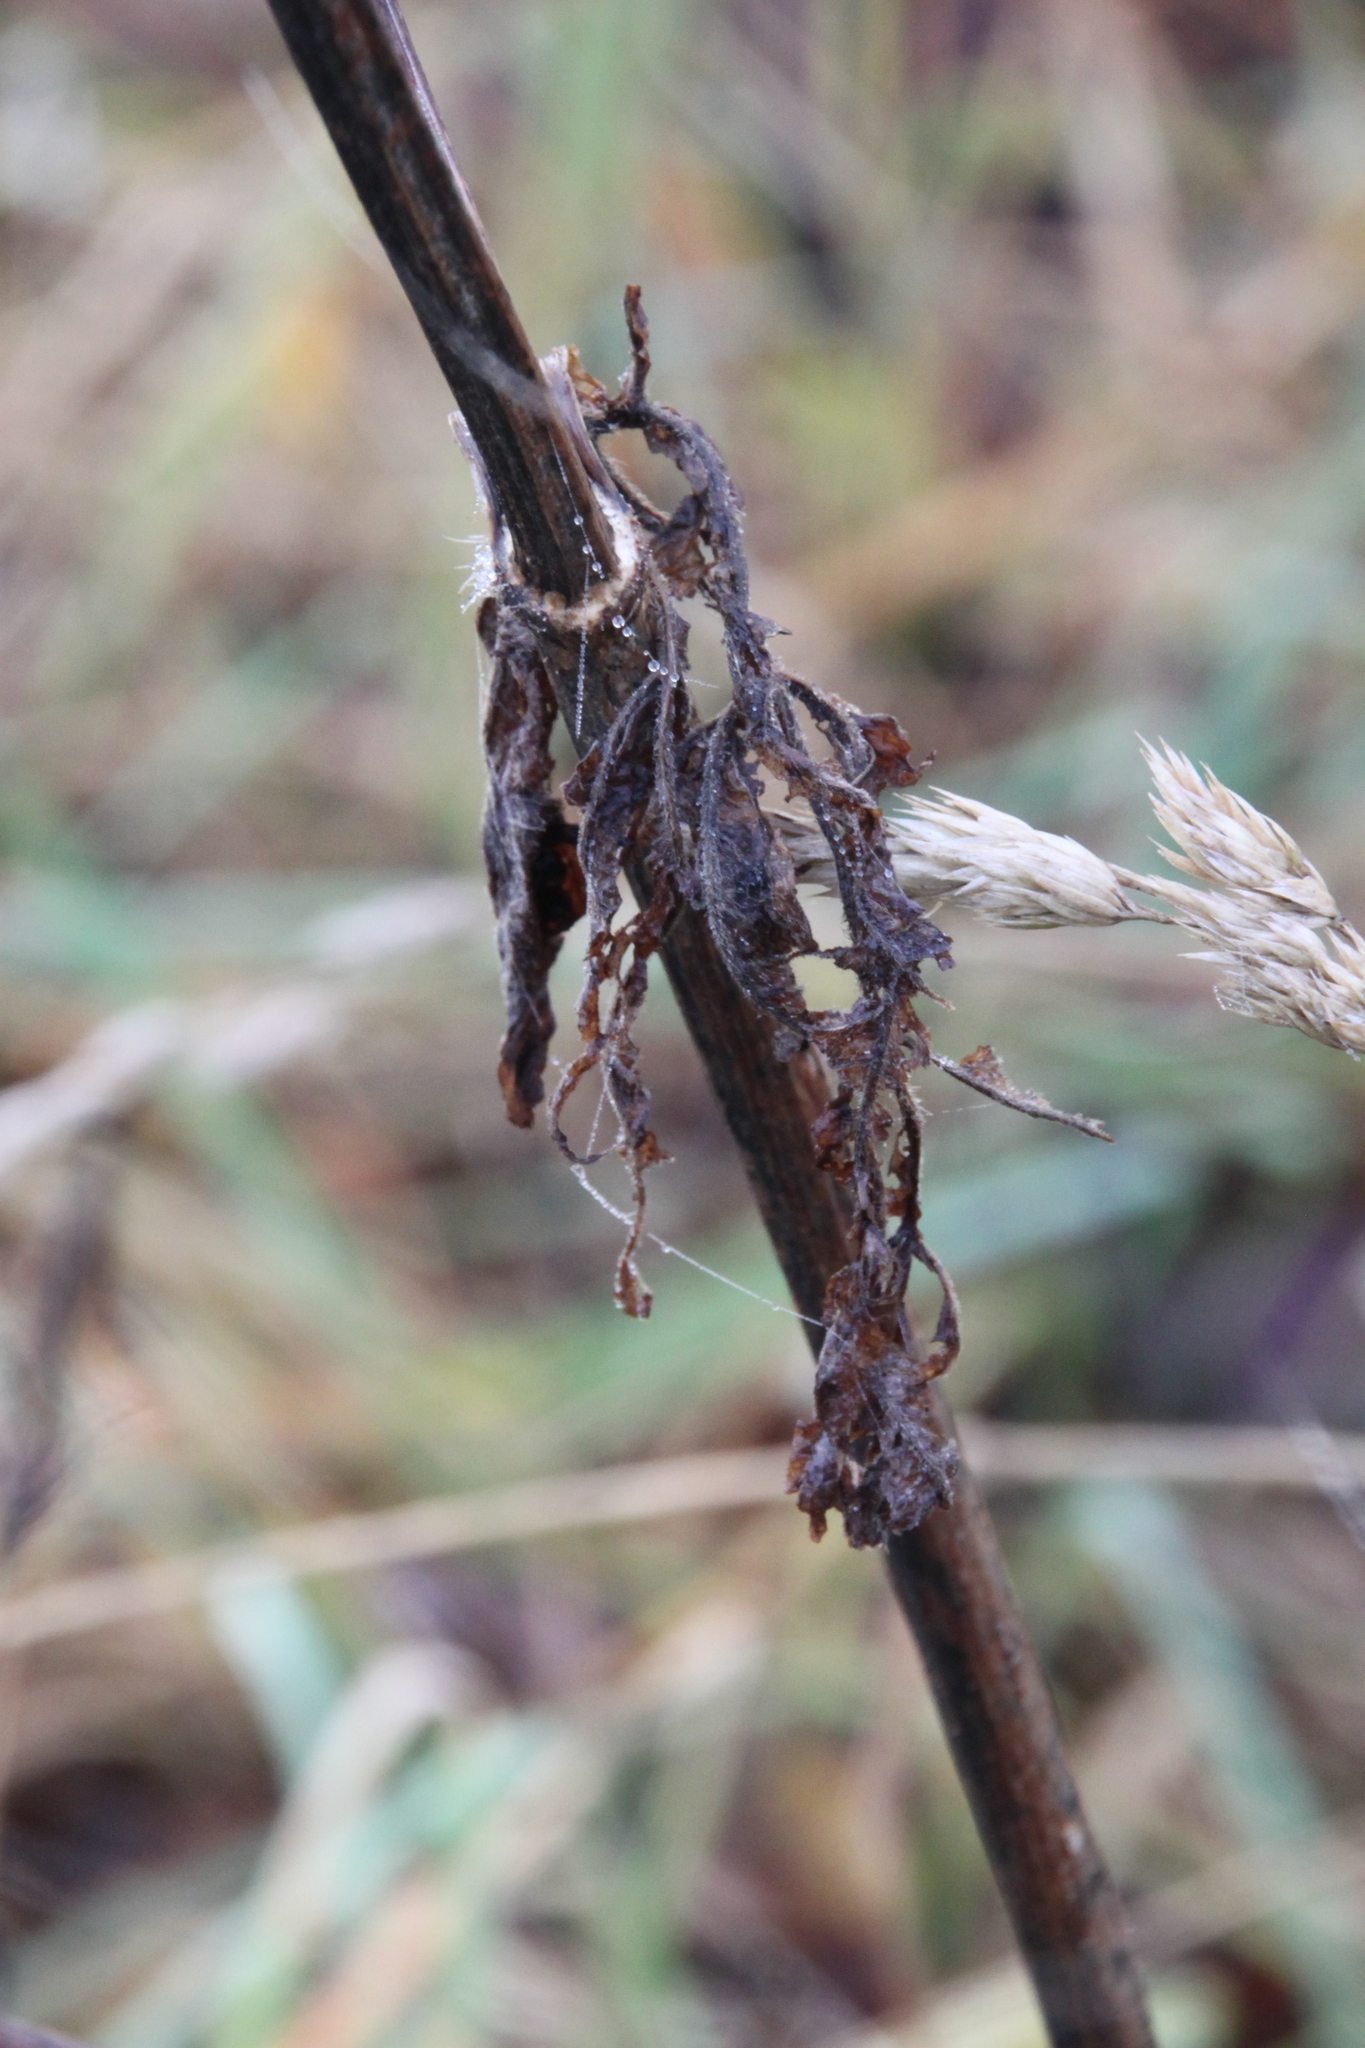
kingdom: Plantae
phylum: Tracheophyta
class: Magnoliopsida
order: Apiales
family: Apiaceae
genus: Anthriscus
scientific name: Anthriscus sylvestris
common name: Cow parsley
